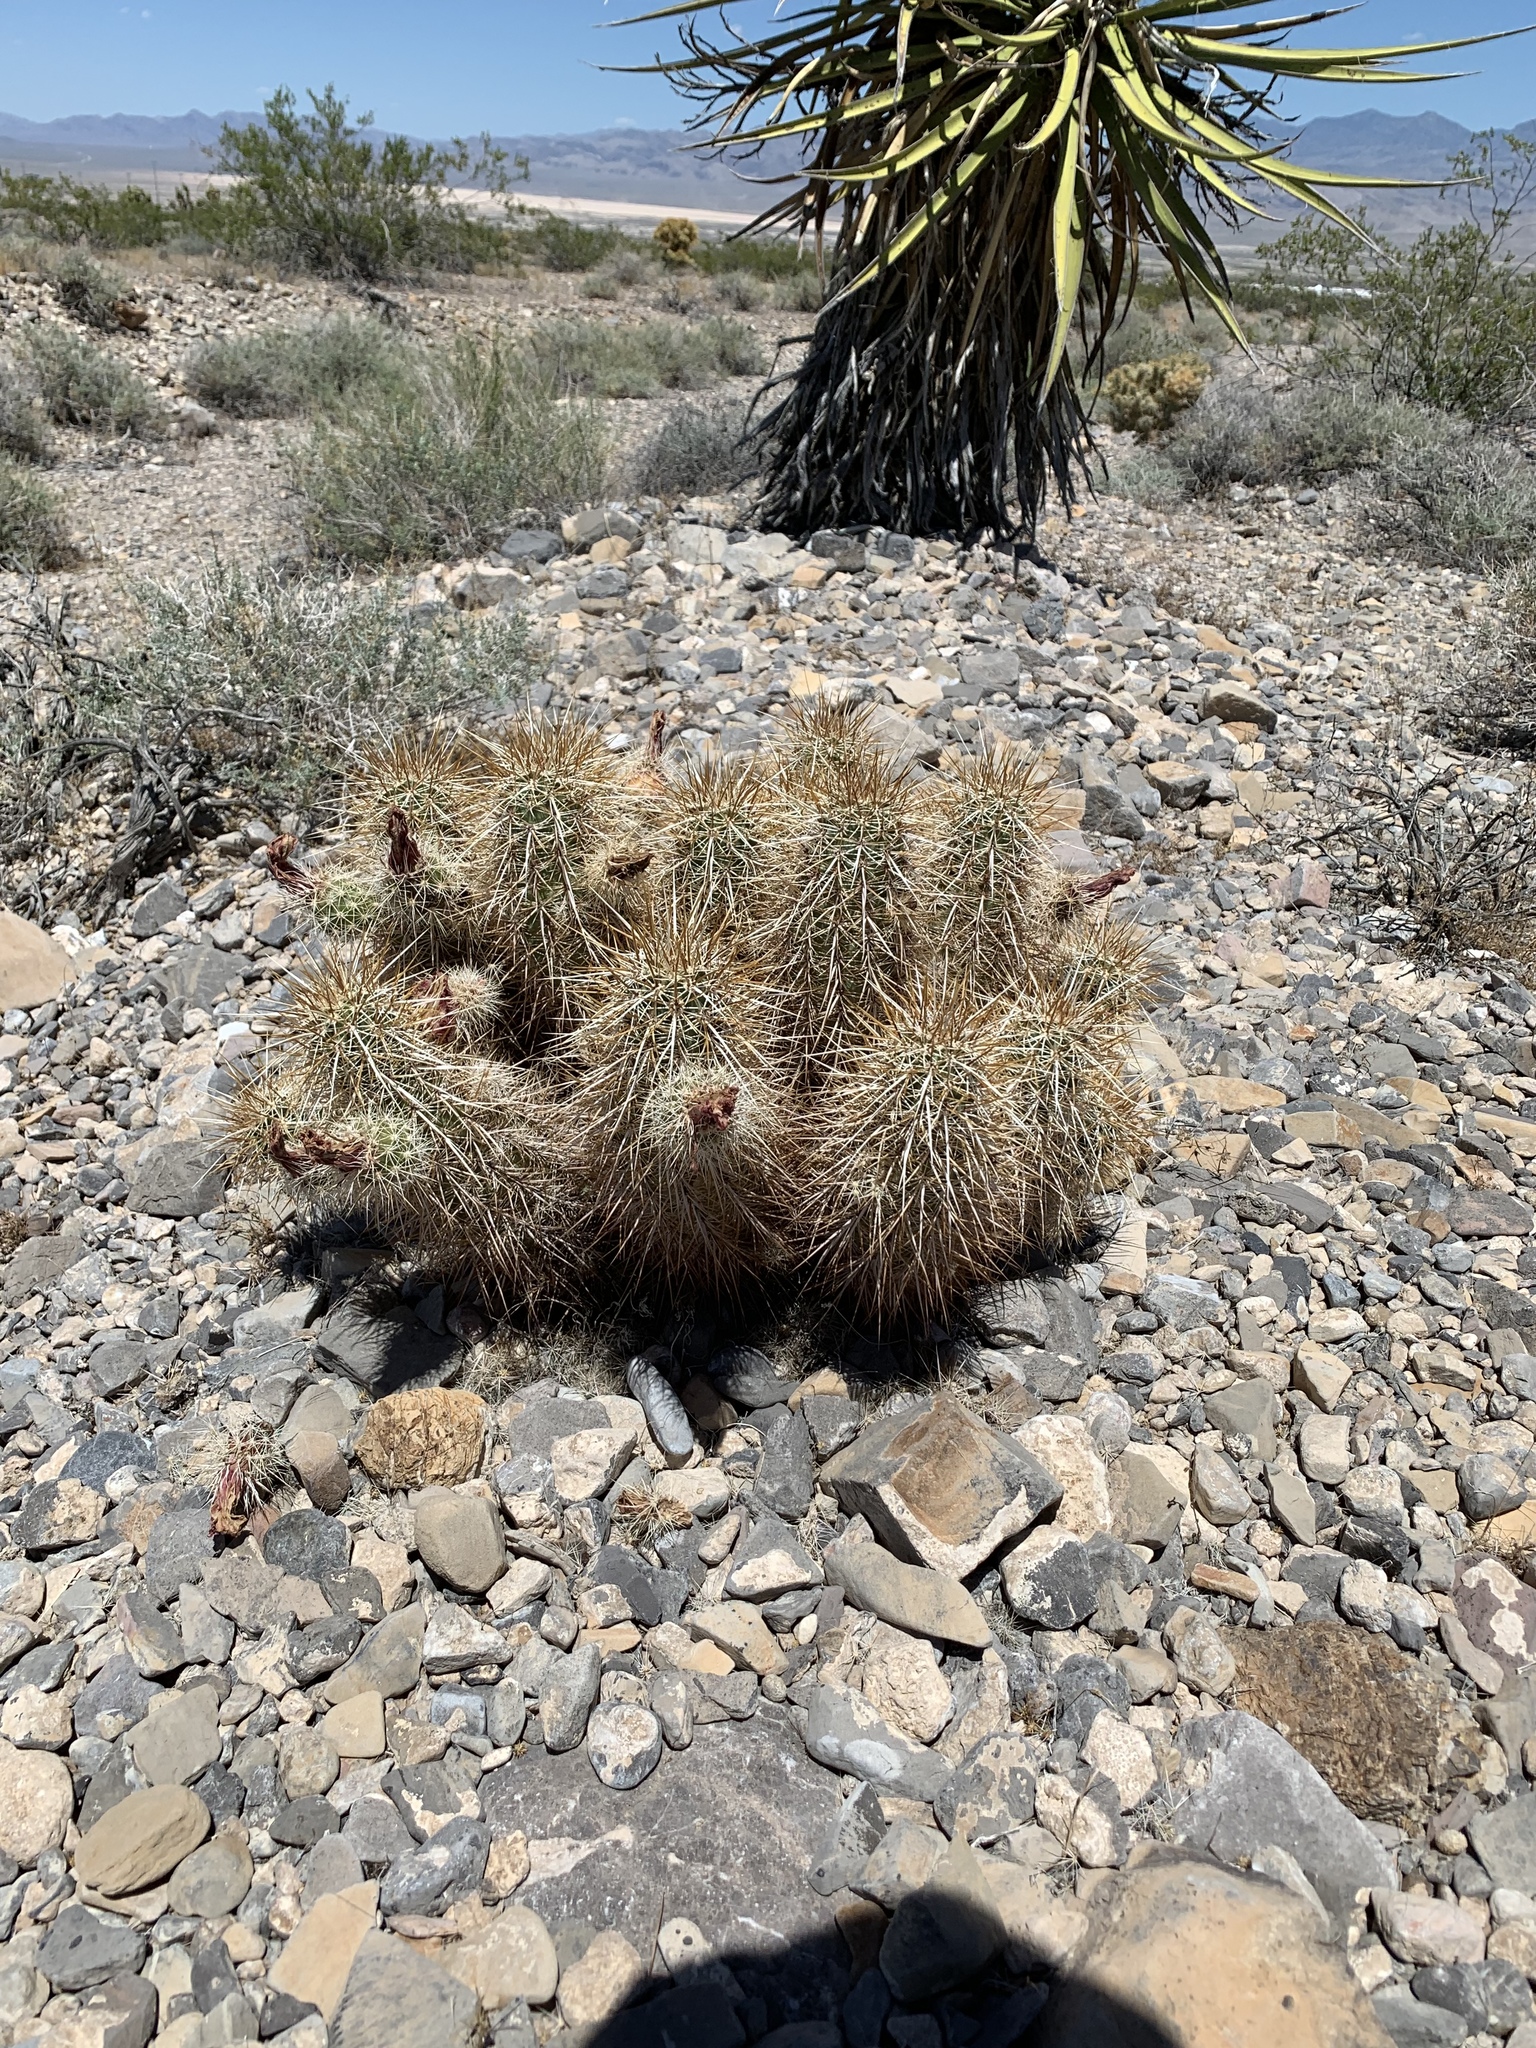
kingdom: Plantae
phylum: Tracheophyta
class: Magnoliopsida
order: Caryophyllales
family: Cactaceae
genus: Echinocereus
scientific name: Echinocereus engelmannii
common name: Engelmann's hedgehog cactus
